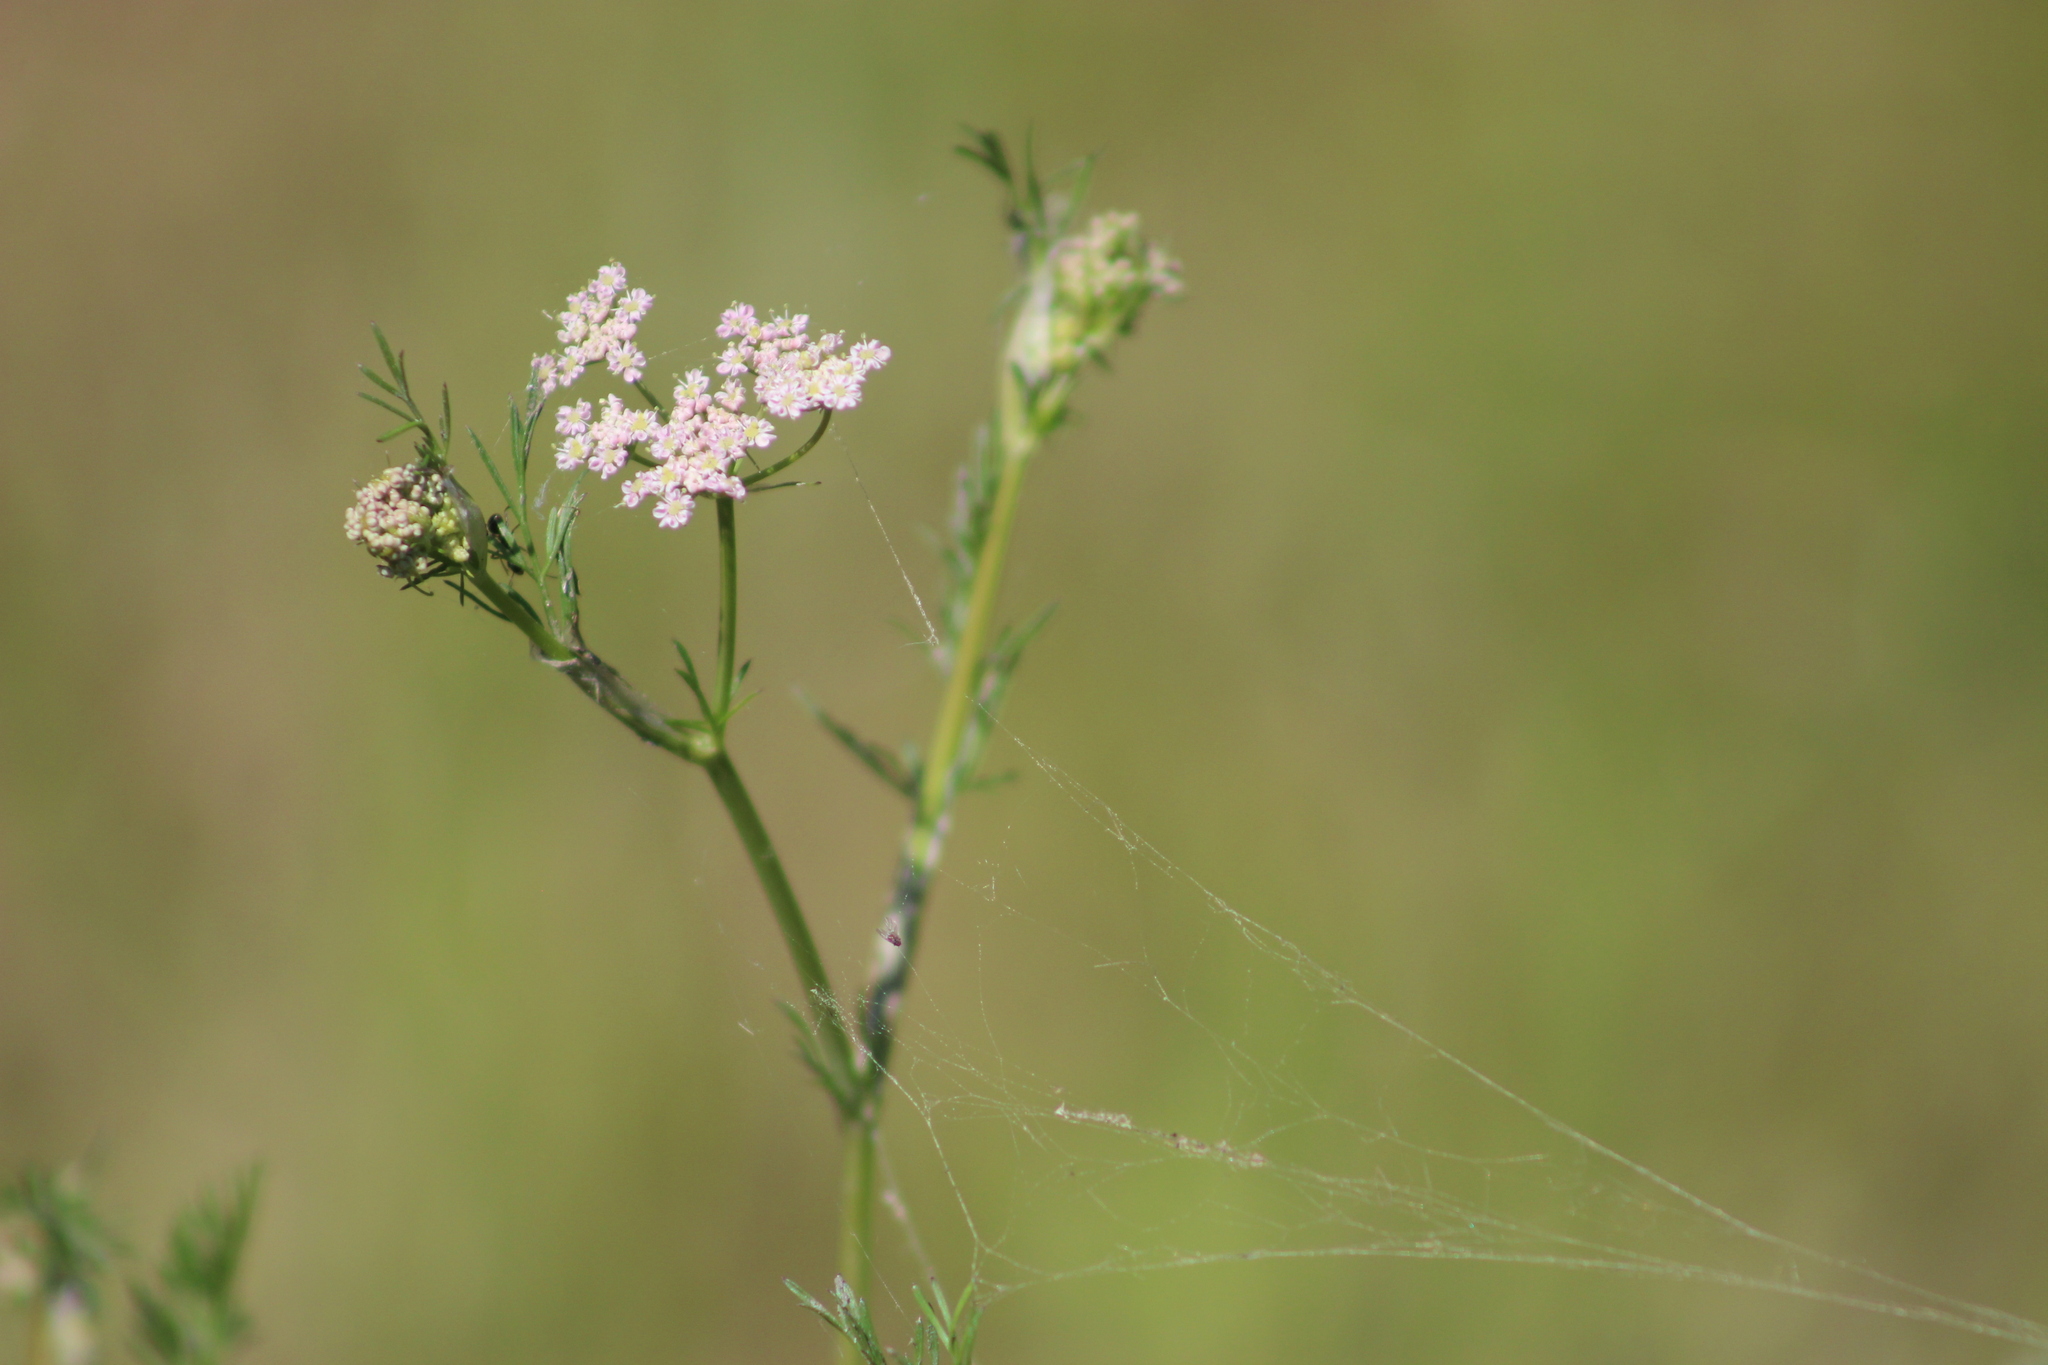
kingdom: Plantae
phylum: Tracheophyta
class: Magnoliopsida
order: Apiales
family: Apiaceae
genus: Carum
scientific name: Carum carvi
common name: Caraway
